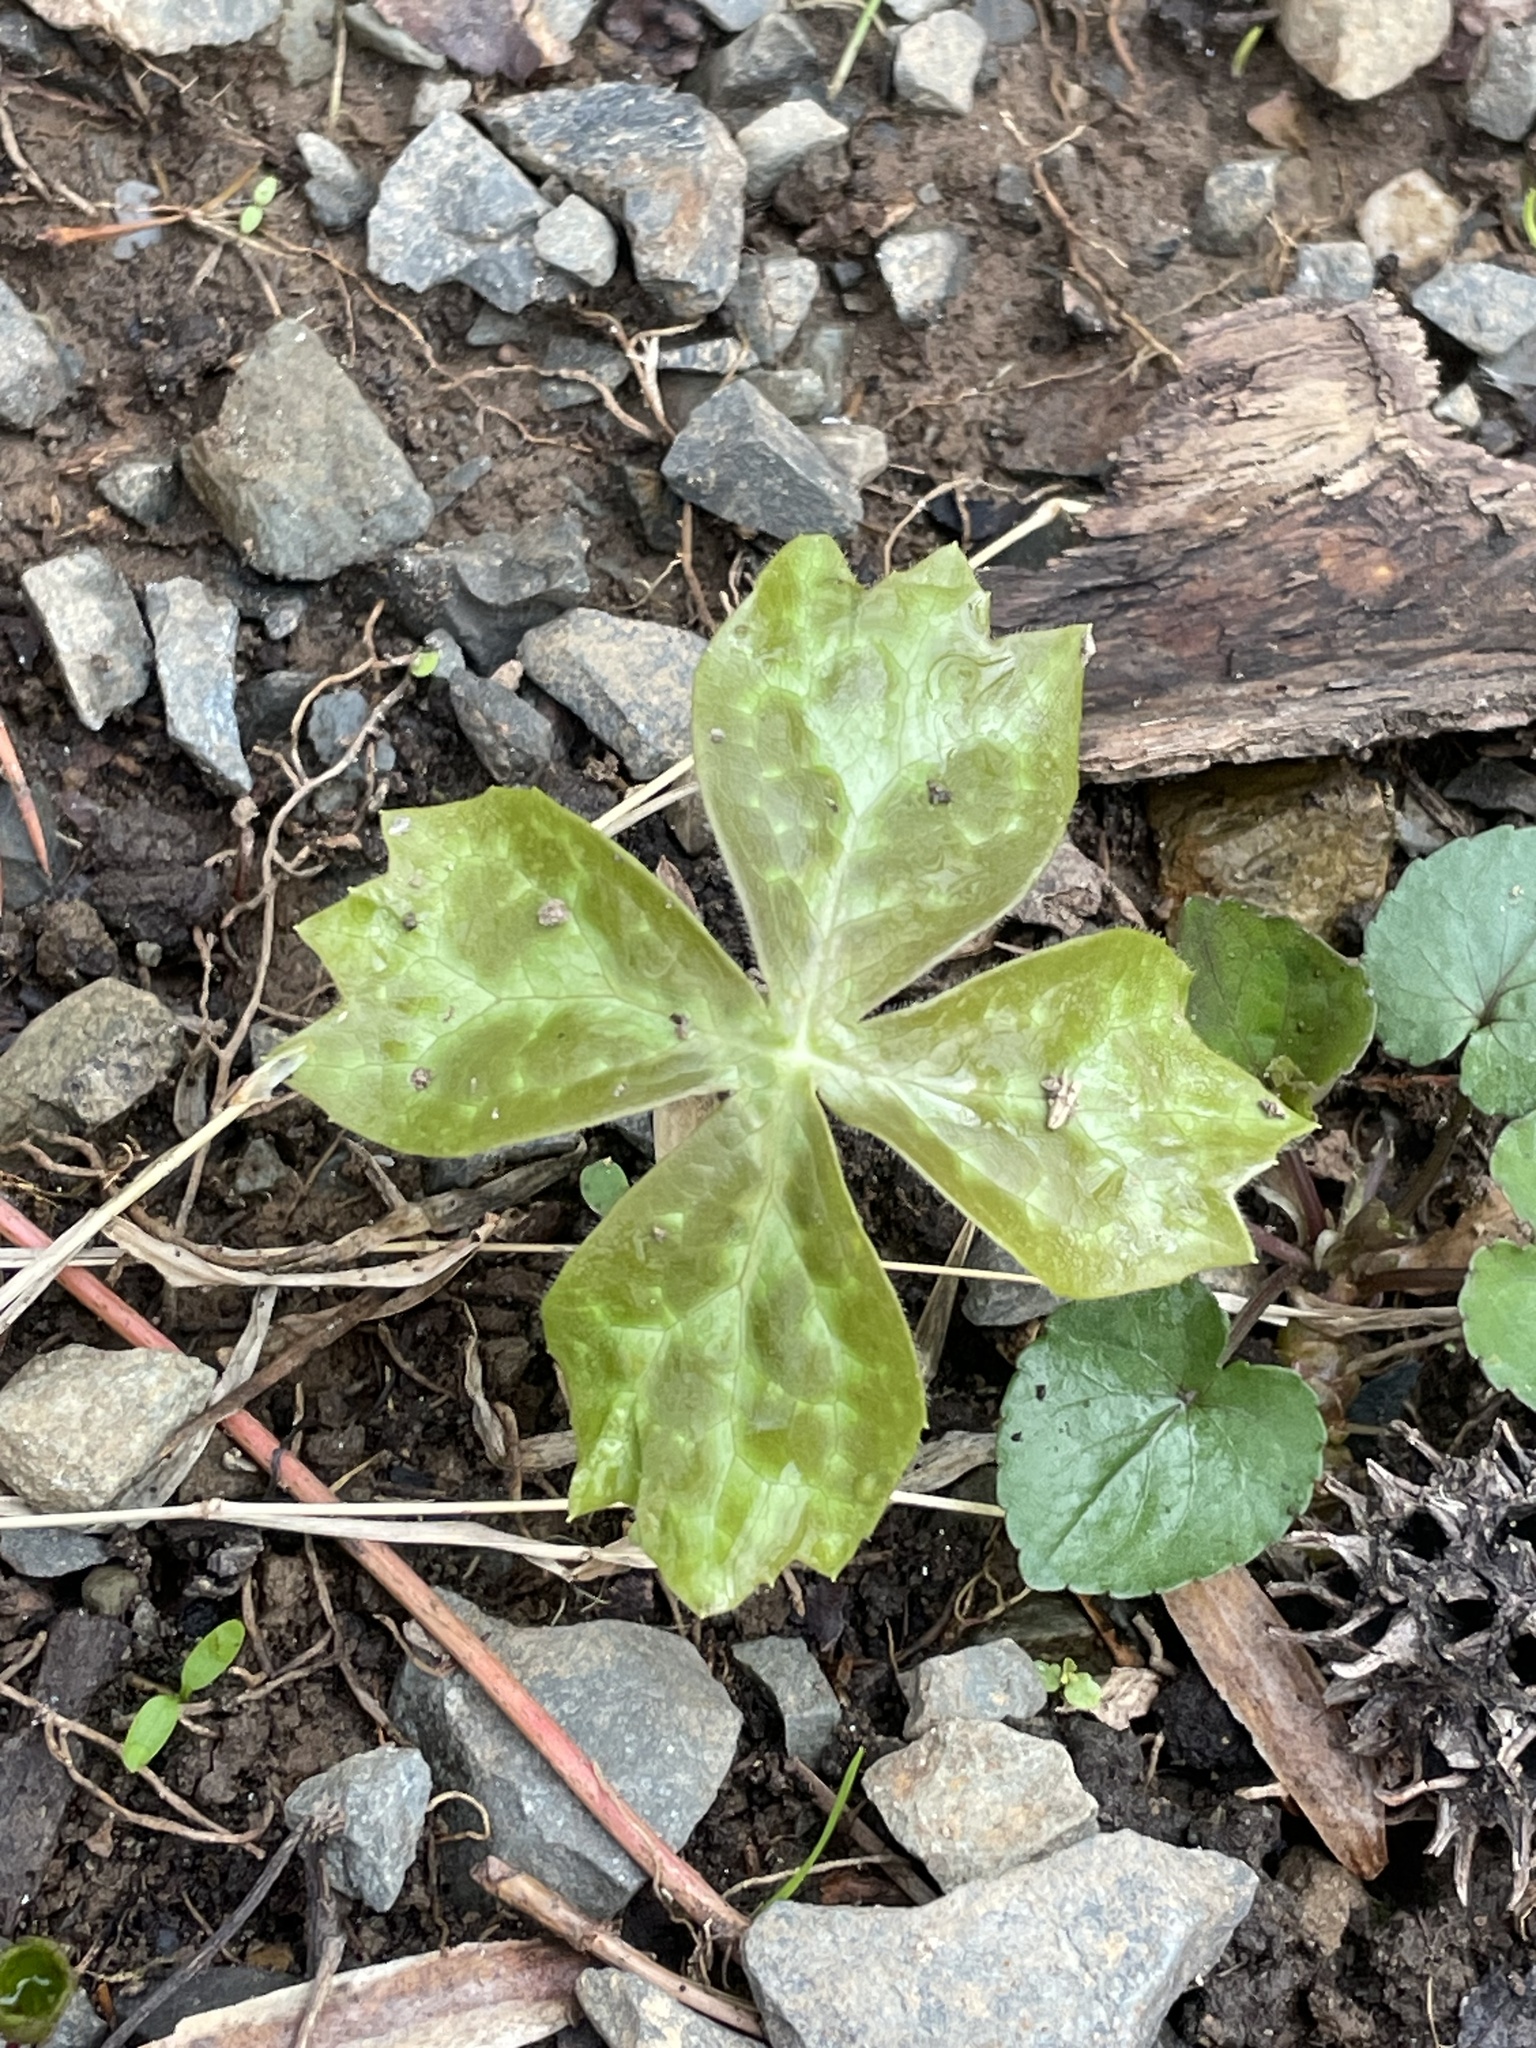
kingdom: Plantae
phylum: Tracheophyta
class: Magnoliopsida
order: Ranunculales
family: Berberidaceae
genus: Podophyllum
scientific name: Podophyllum peltatum
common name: Wild mandrake
